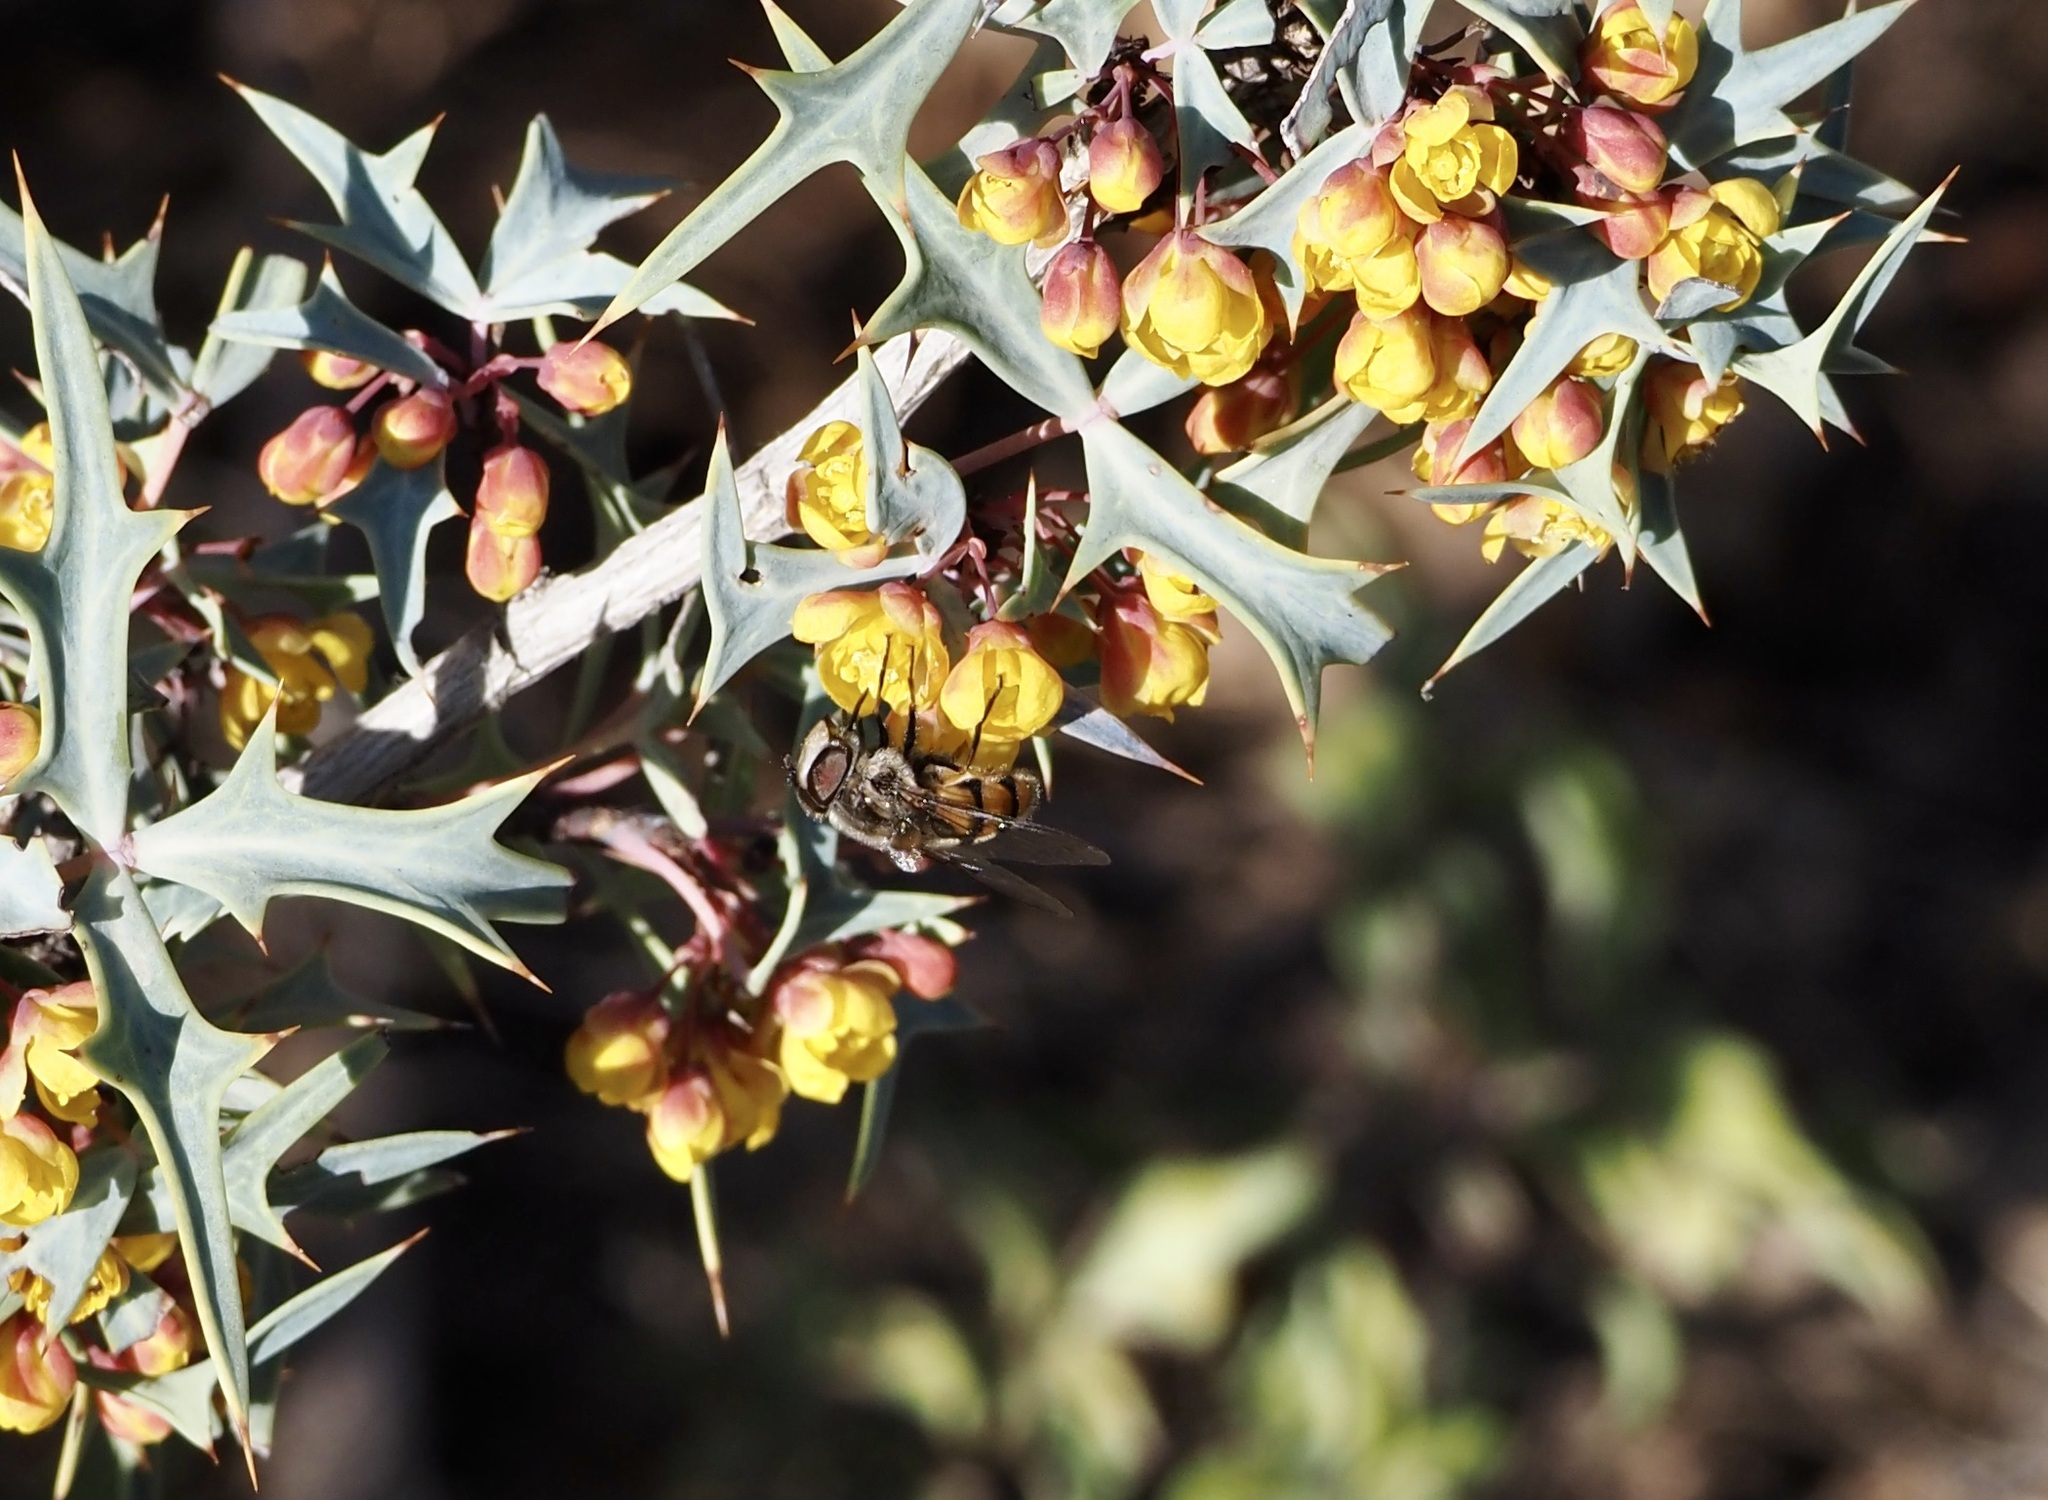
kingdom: Animalia
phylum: Arthropoda
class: Insecta
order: Diptera
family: Syrphidae
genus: Copestylum
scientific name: Copestylum avidum
